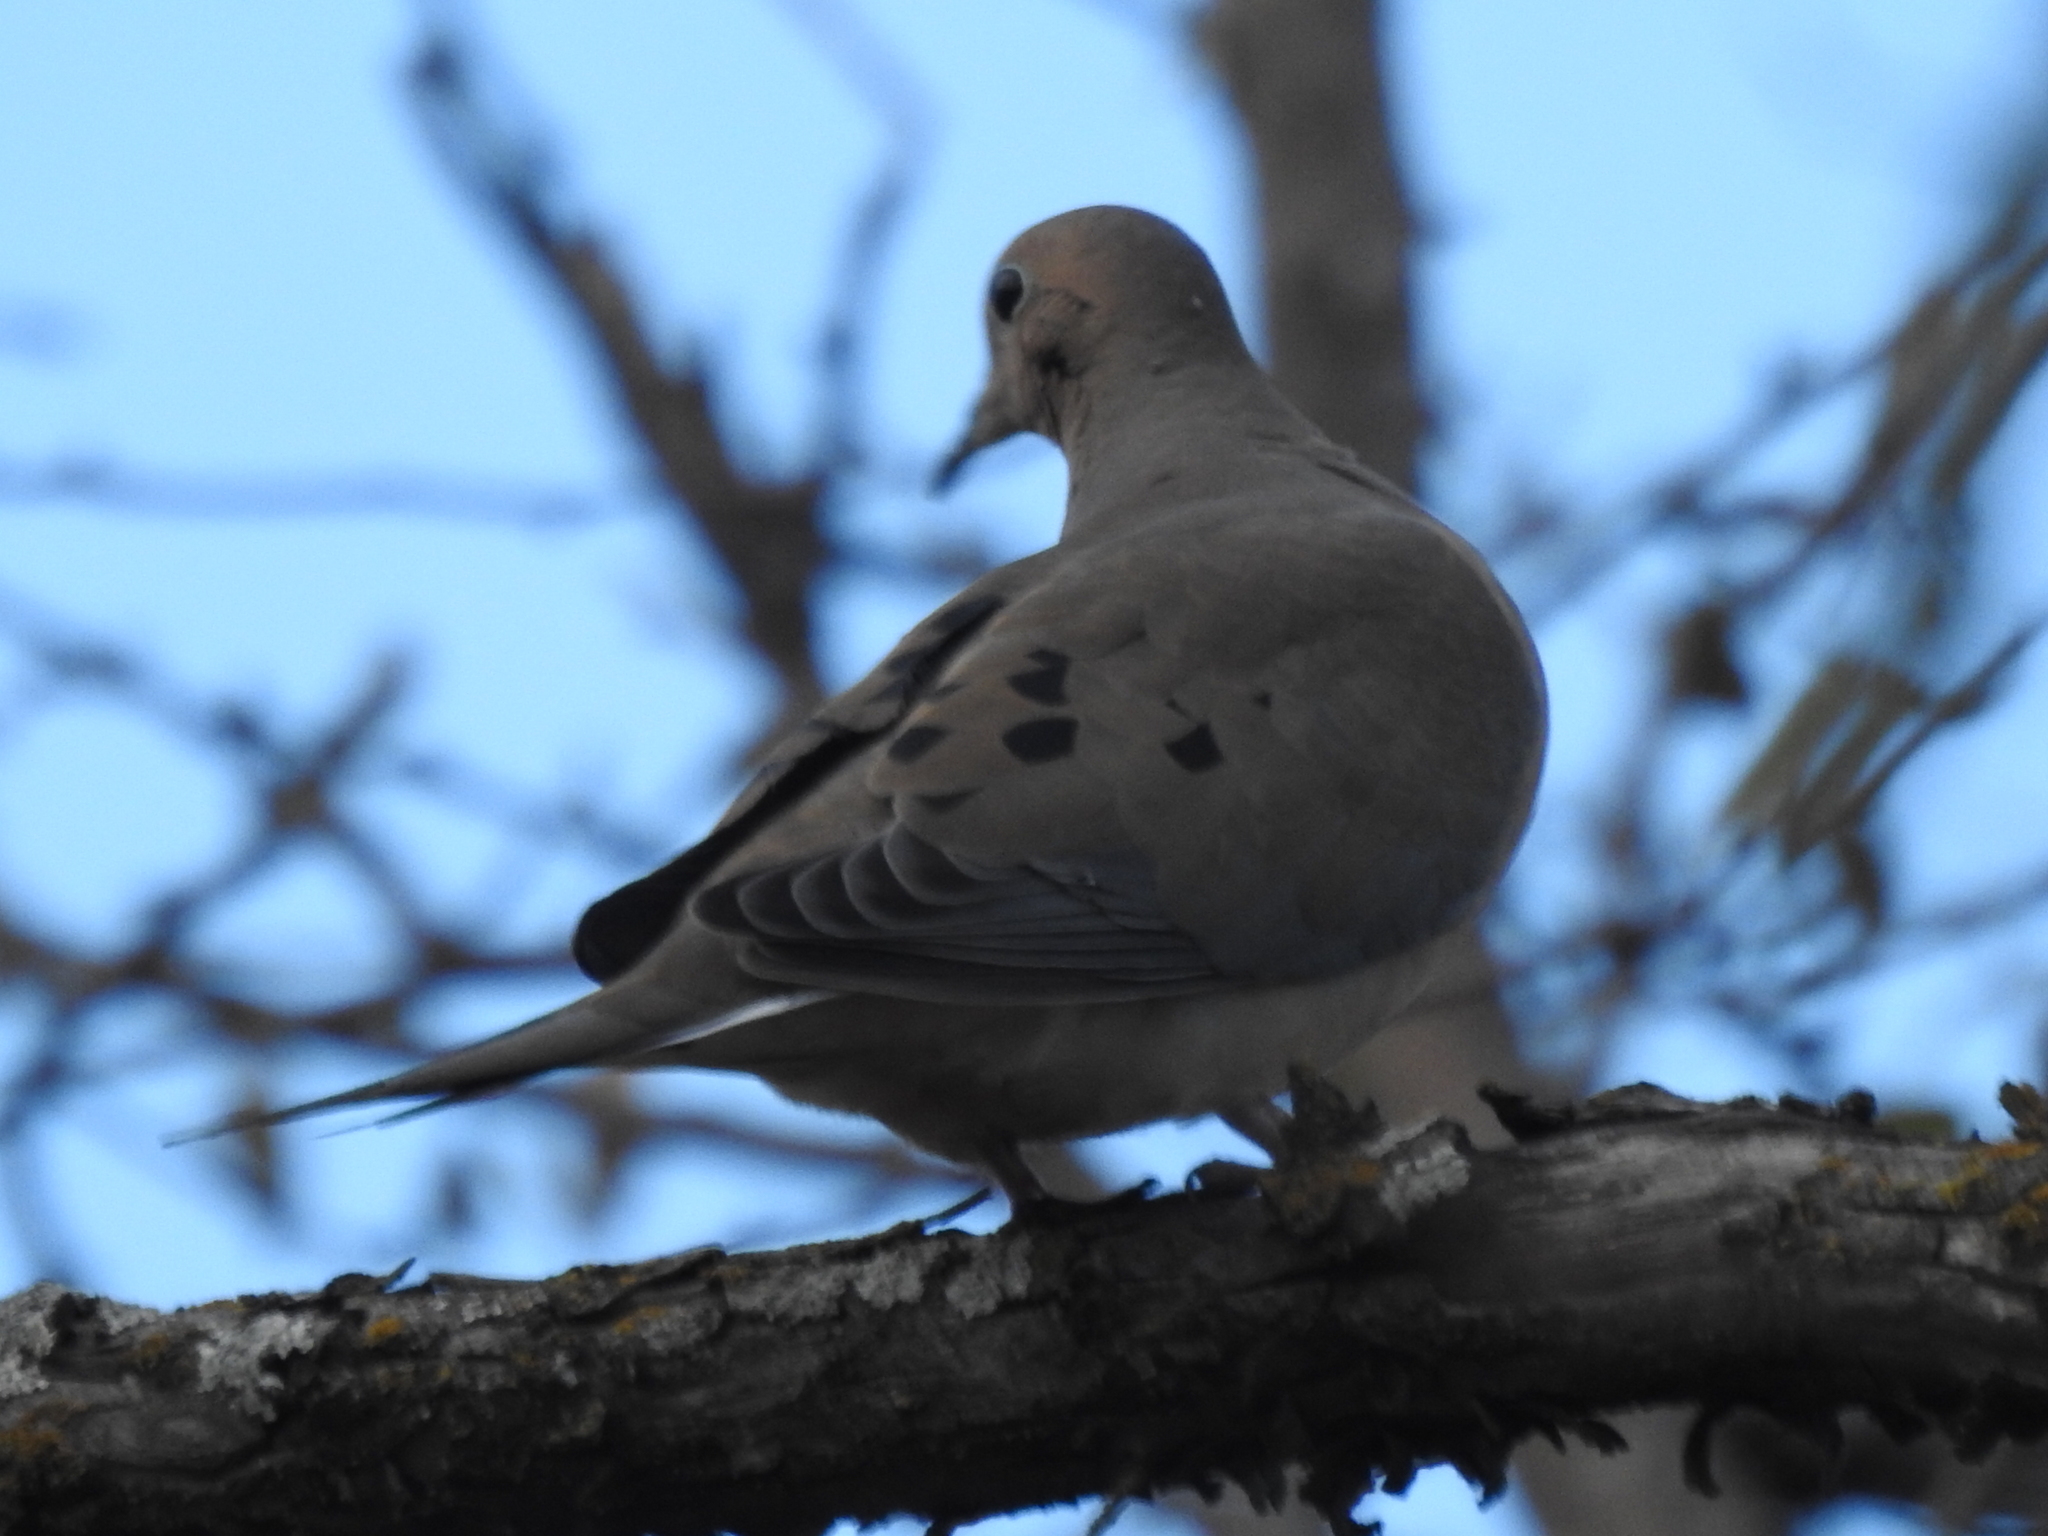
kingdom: Animalia
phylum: Chordata
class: Aves
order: Columbiformes
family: Columbidae
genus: Zenaida
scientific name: Zenaida macroura
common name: Mourning dove
